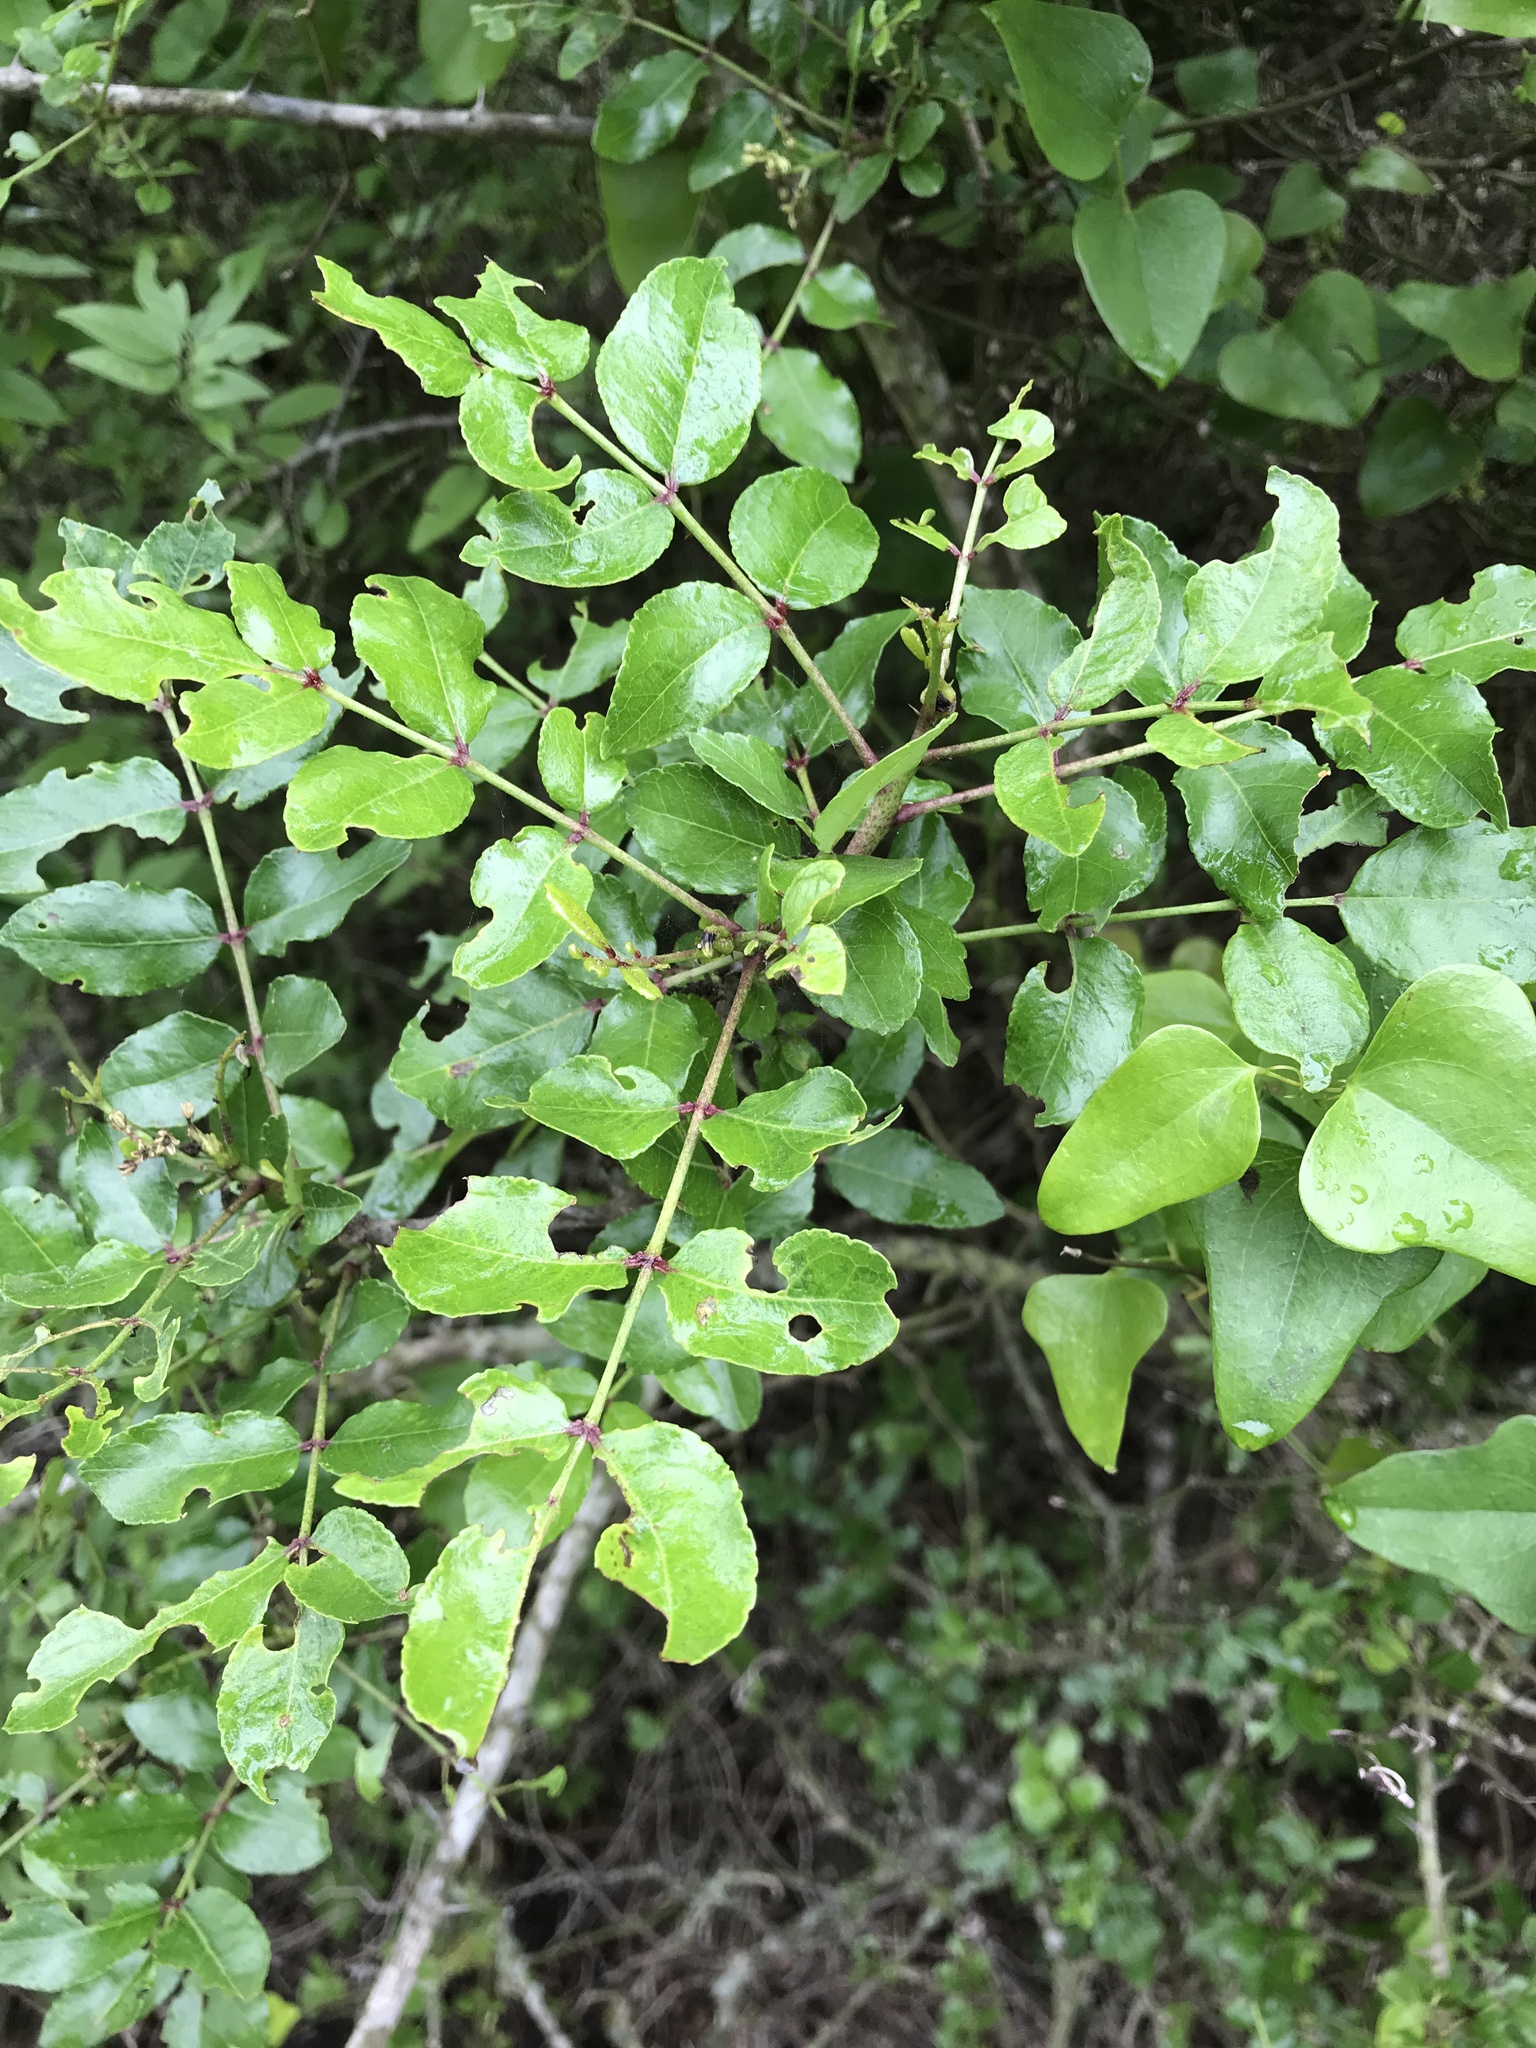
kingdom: Plantae
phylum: Tracheophyta
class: Magnoliopsida
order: Sapindales
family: Rutaceae
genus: Zanthoxylum
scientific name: Zanthoxylum clava-herculis
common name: Hercules'-club
